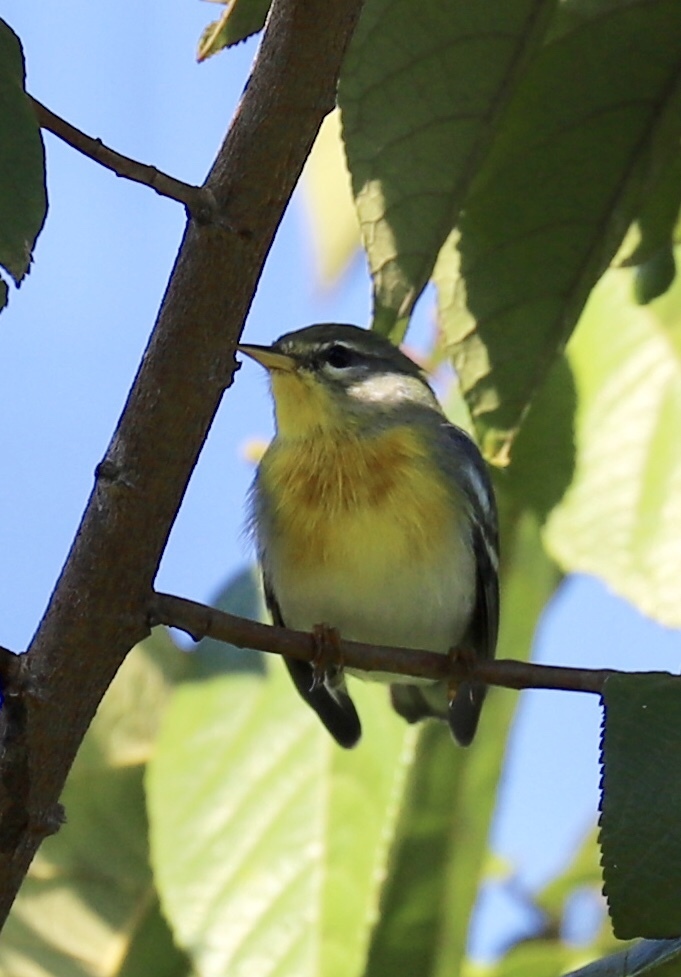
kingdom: Animalia
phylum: Chordata
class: Aves
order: Passeriformes
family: Parulidae
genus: Setophaga
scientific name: Setophaga americana
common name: Northern parula
